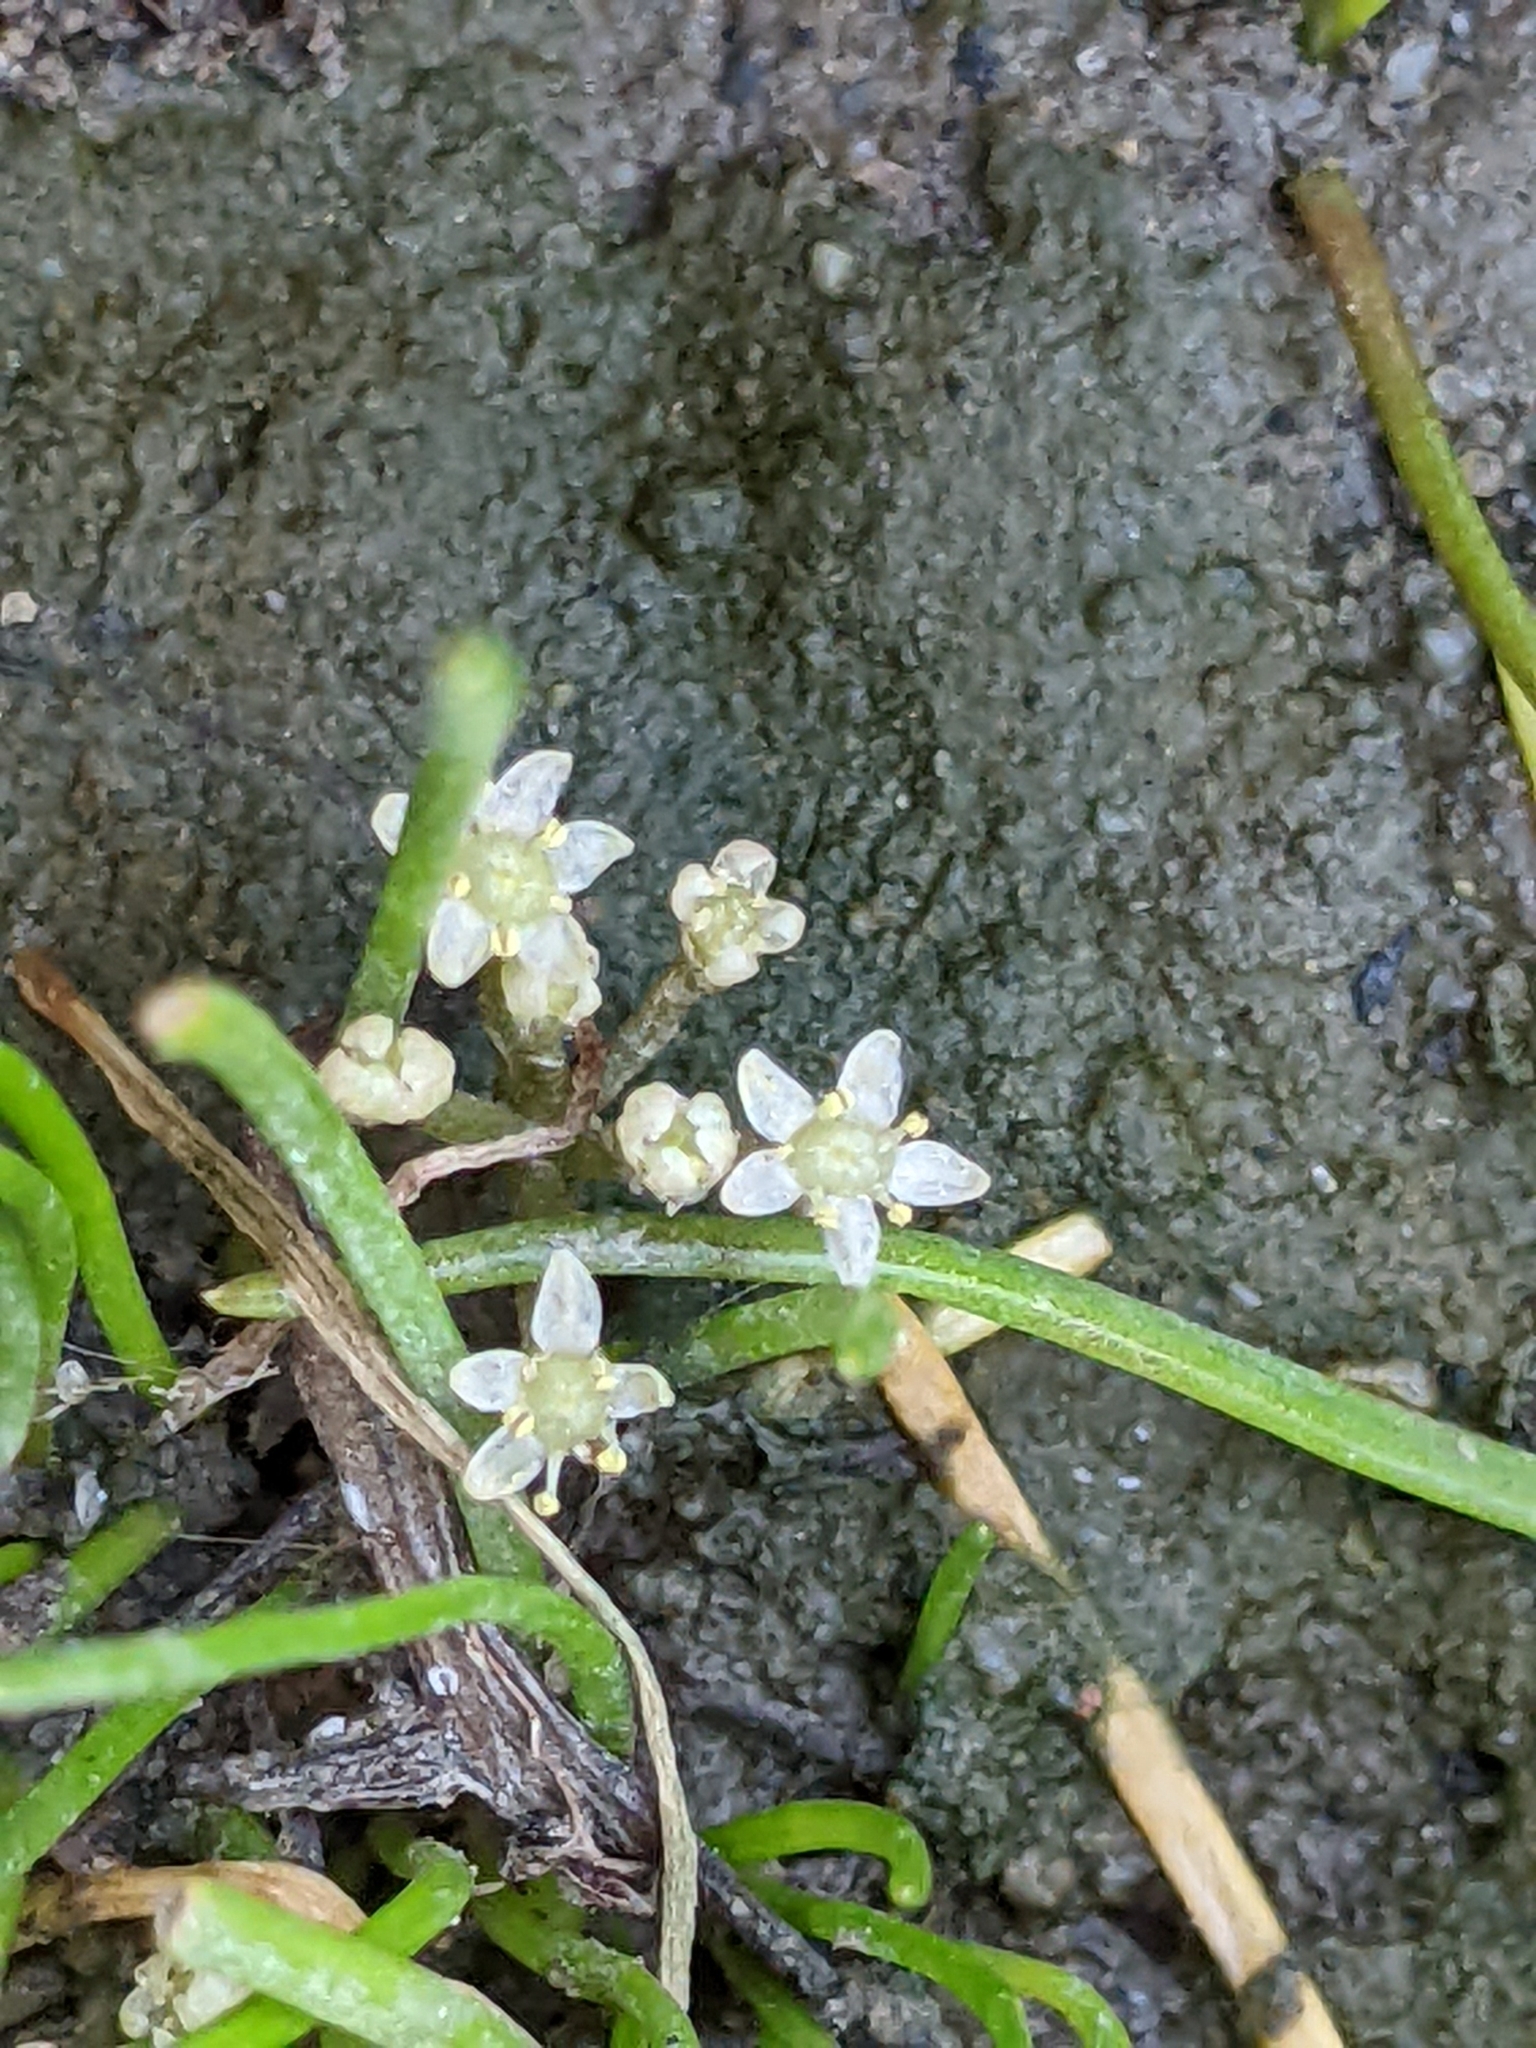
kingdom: Plantae
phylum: Tracheophyta
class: Magnoliopsida
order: Apiales
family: Apiaceae
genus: Lilaeopsis
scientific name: Lilaeopsis occidentalis
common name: Western grasswort
